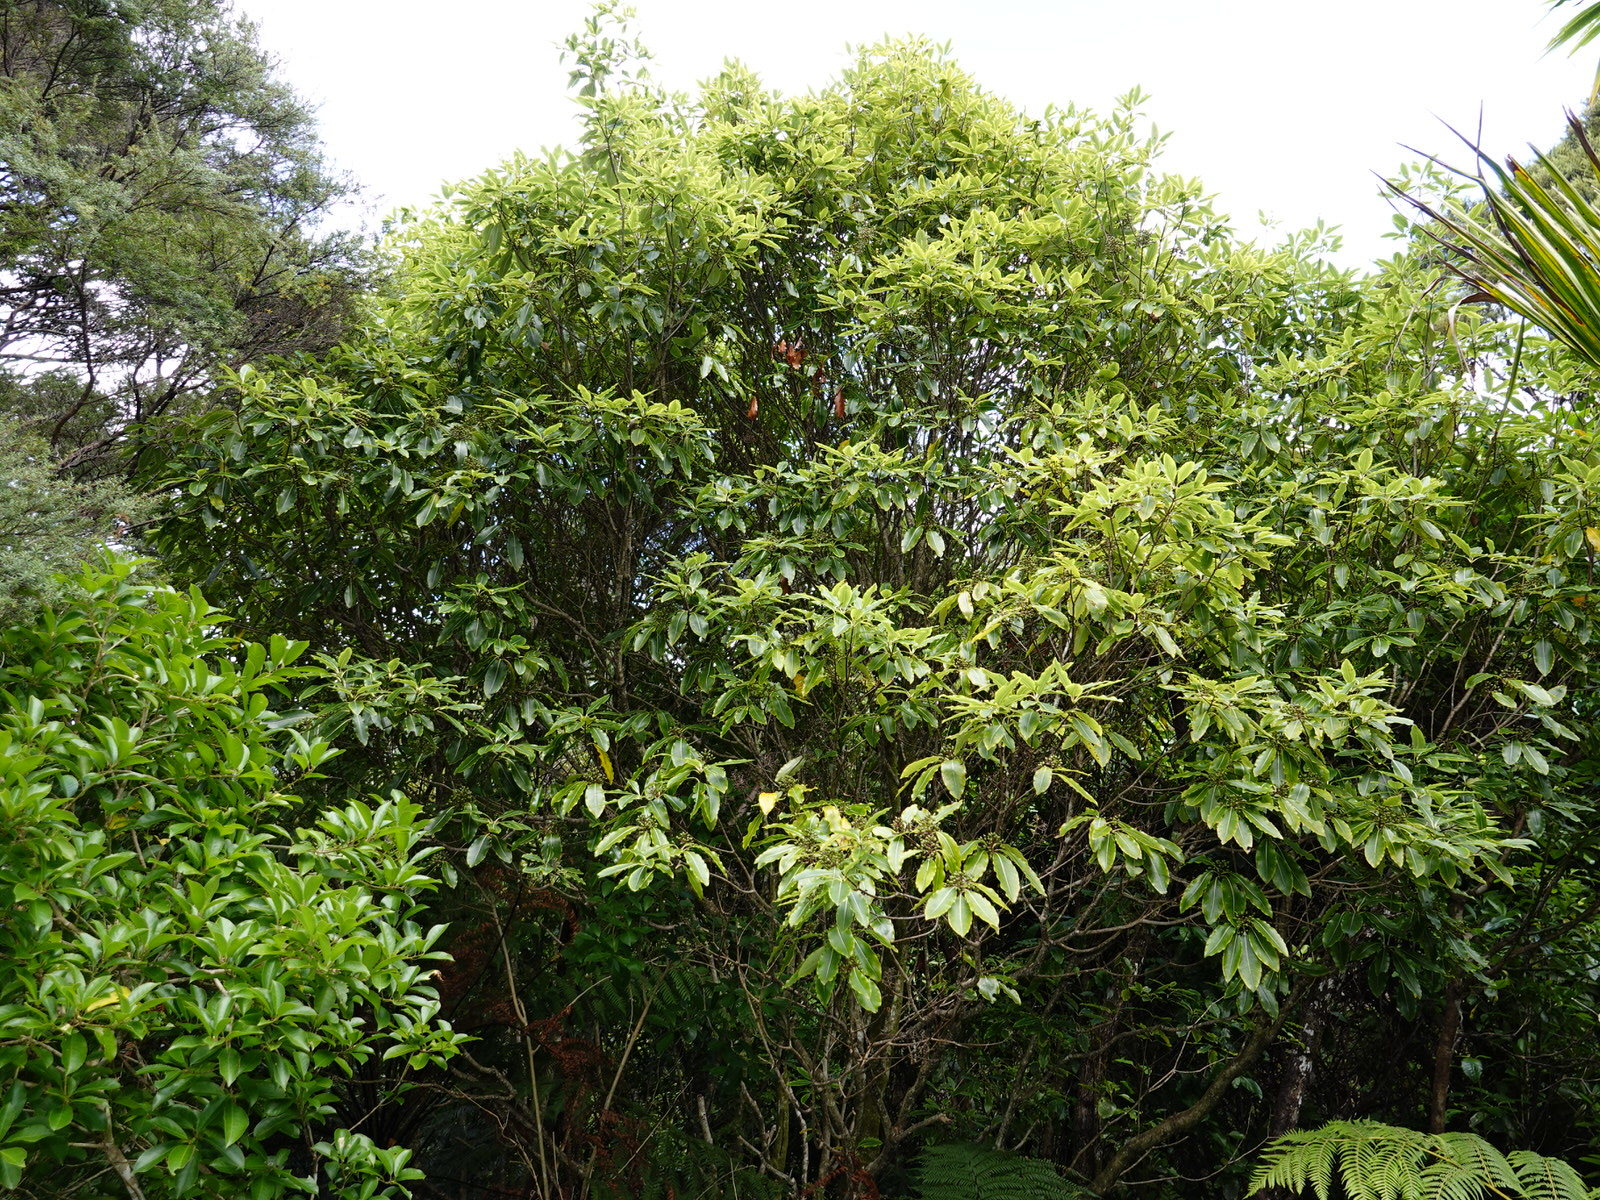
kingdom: Plantae
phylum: Tracheophyta
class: Magnoliopsida
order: Apiales
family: Pittosporaceae
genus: Pittosporum
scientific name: Pittosporum eugenioides
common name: Lemonwood
